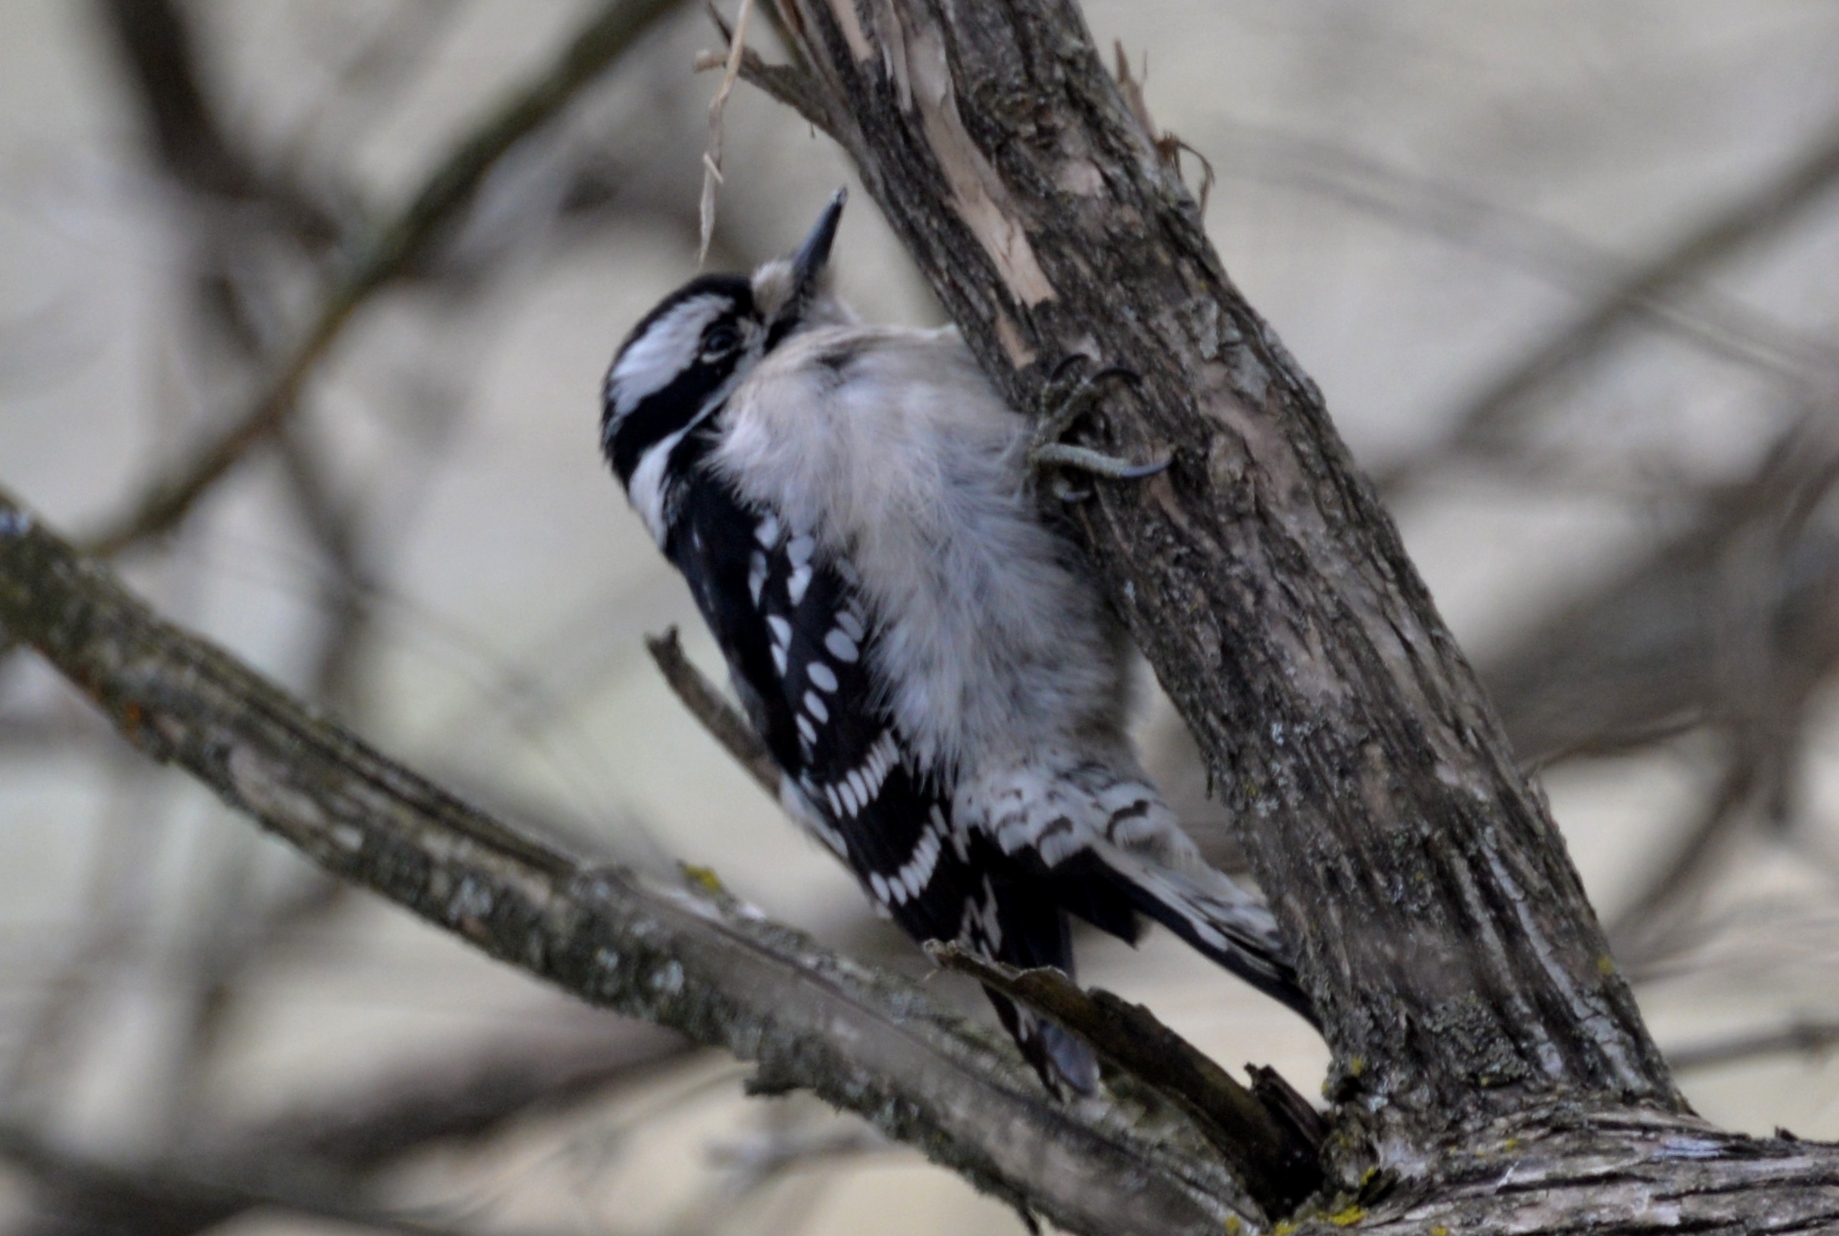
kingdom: Animalia
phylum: Chordata
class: Aves
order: Piciformes
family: Picidae
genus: Dryobates
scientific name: Dryobates pubescens
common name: Downy woodpecker
